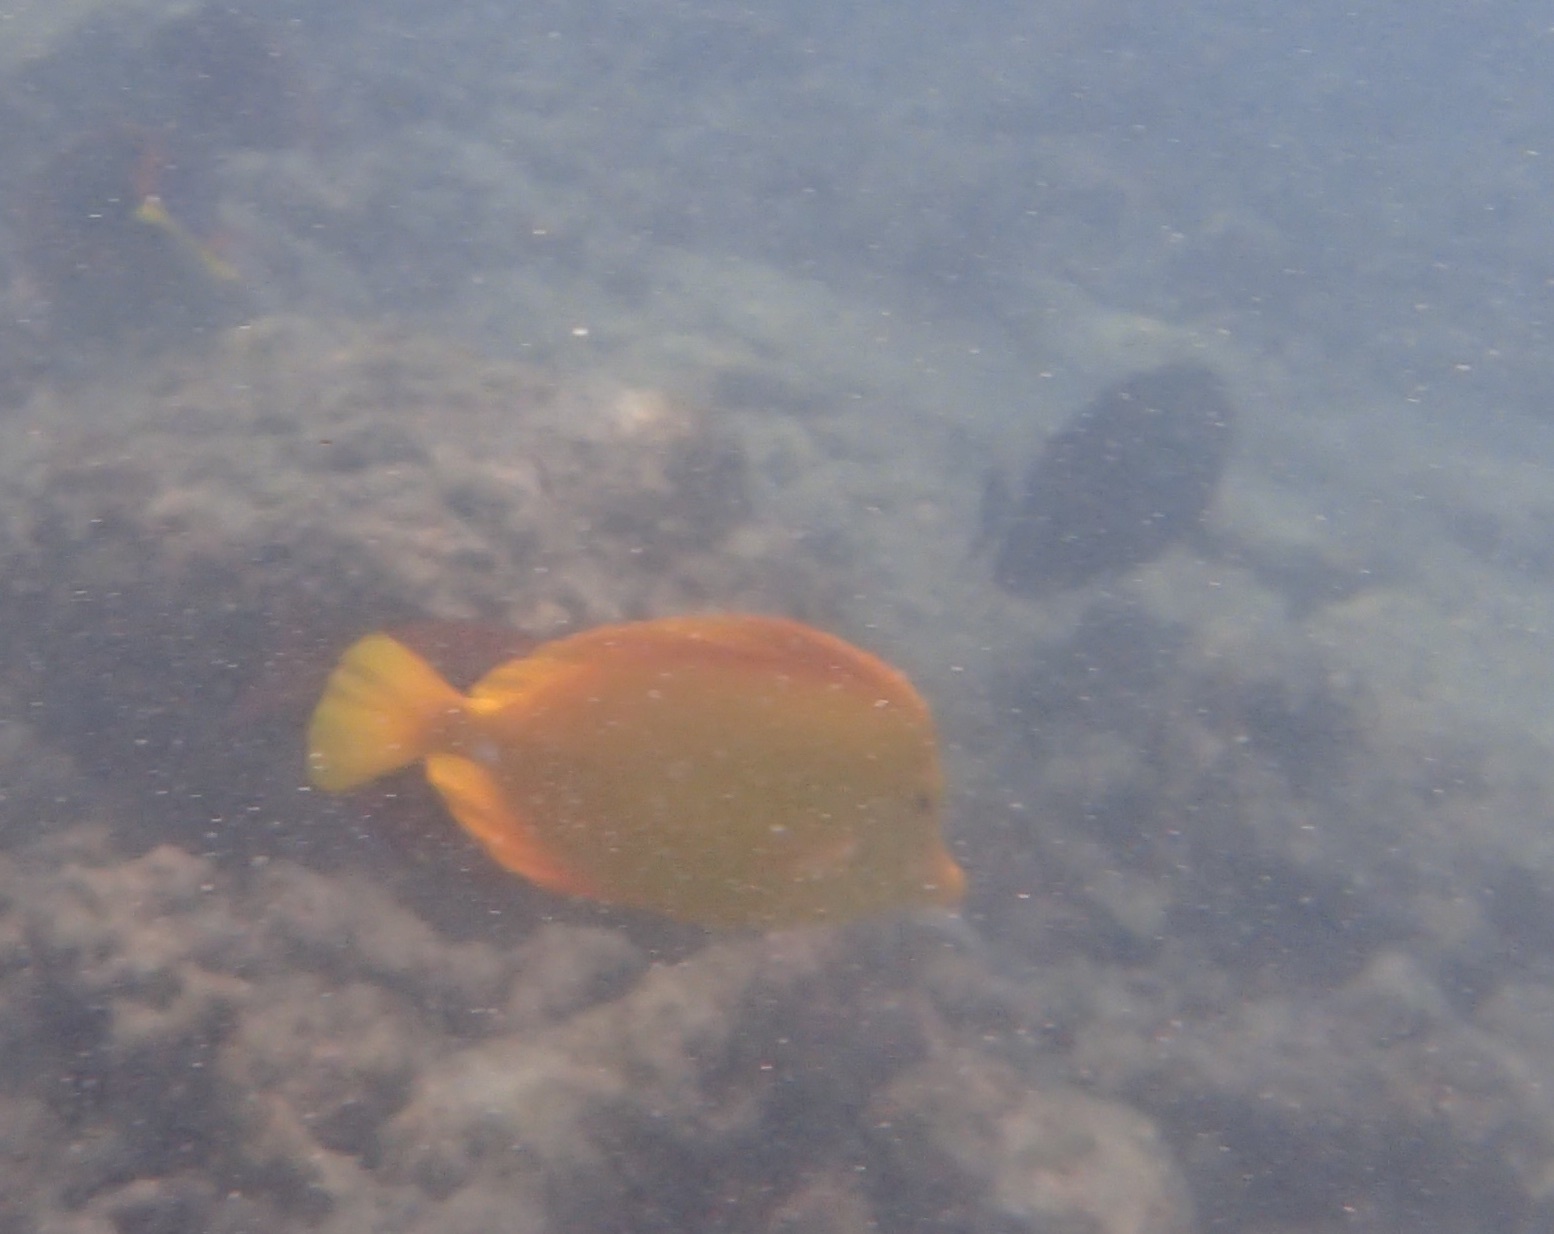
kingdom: Animalia
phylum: Chordata
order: Perciformes
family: Acanthuridae
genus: Zebrasoma
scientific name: Zebrasoma flavescens
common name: Yellow tang
